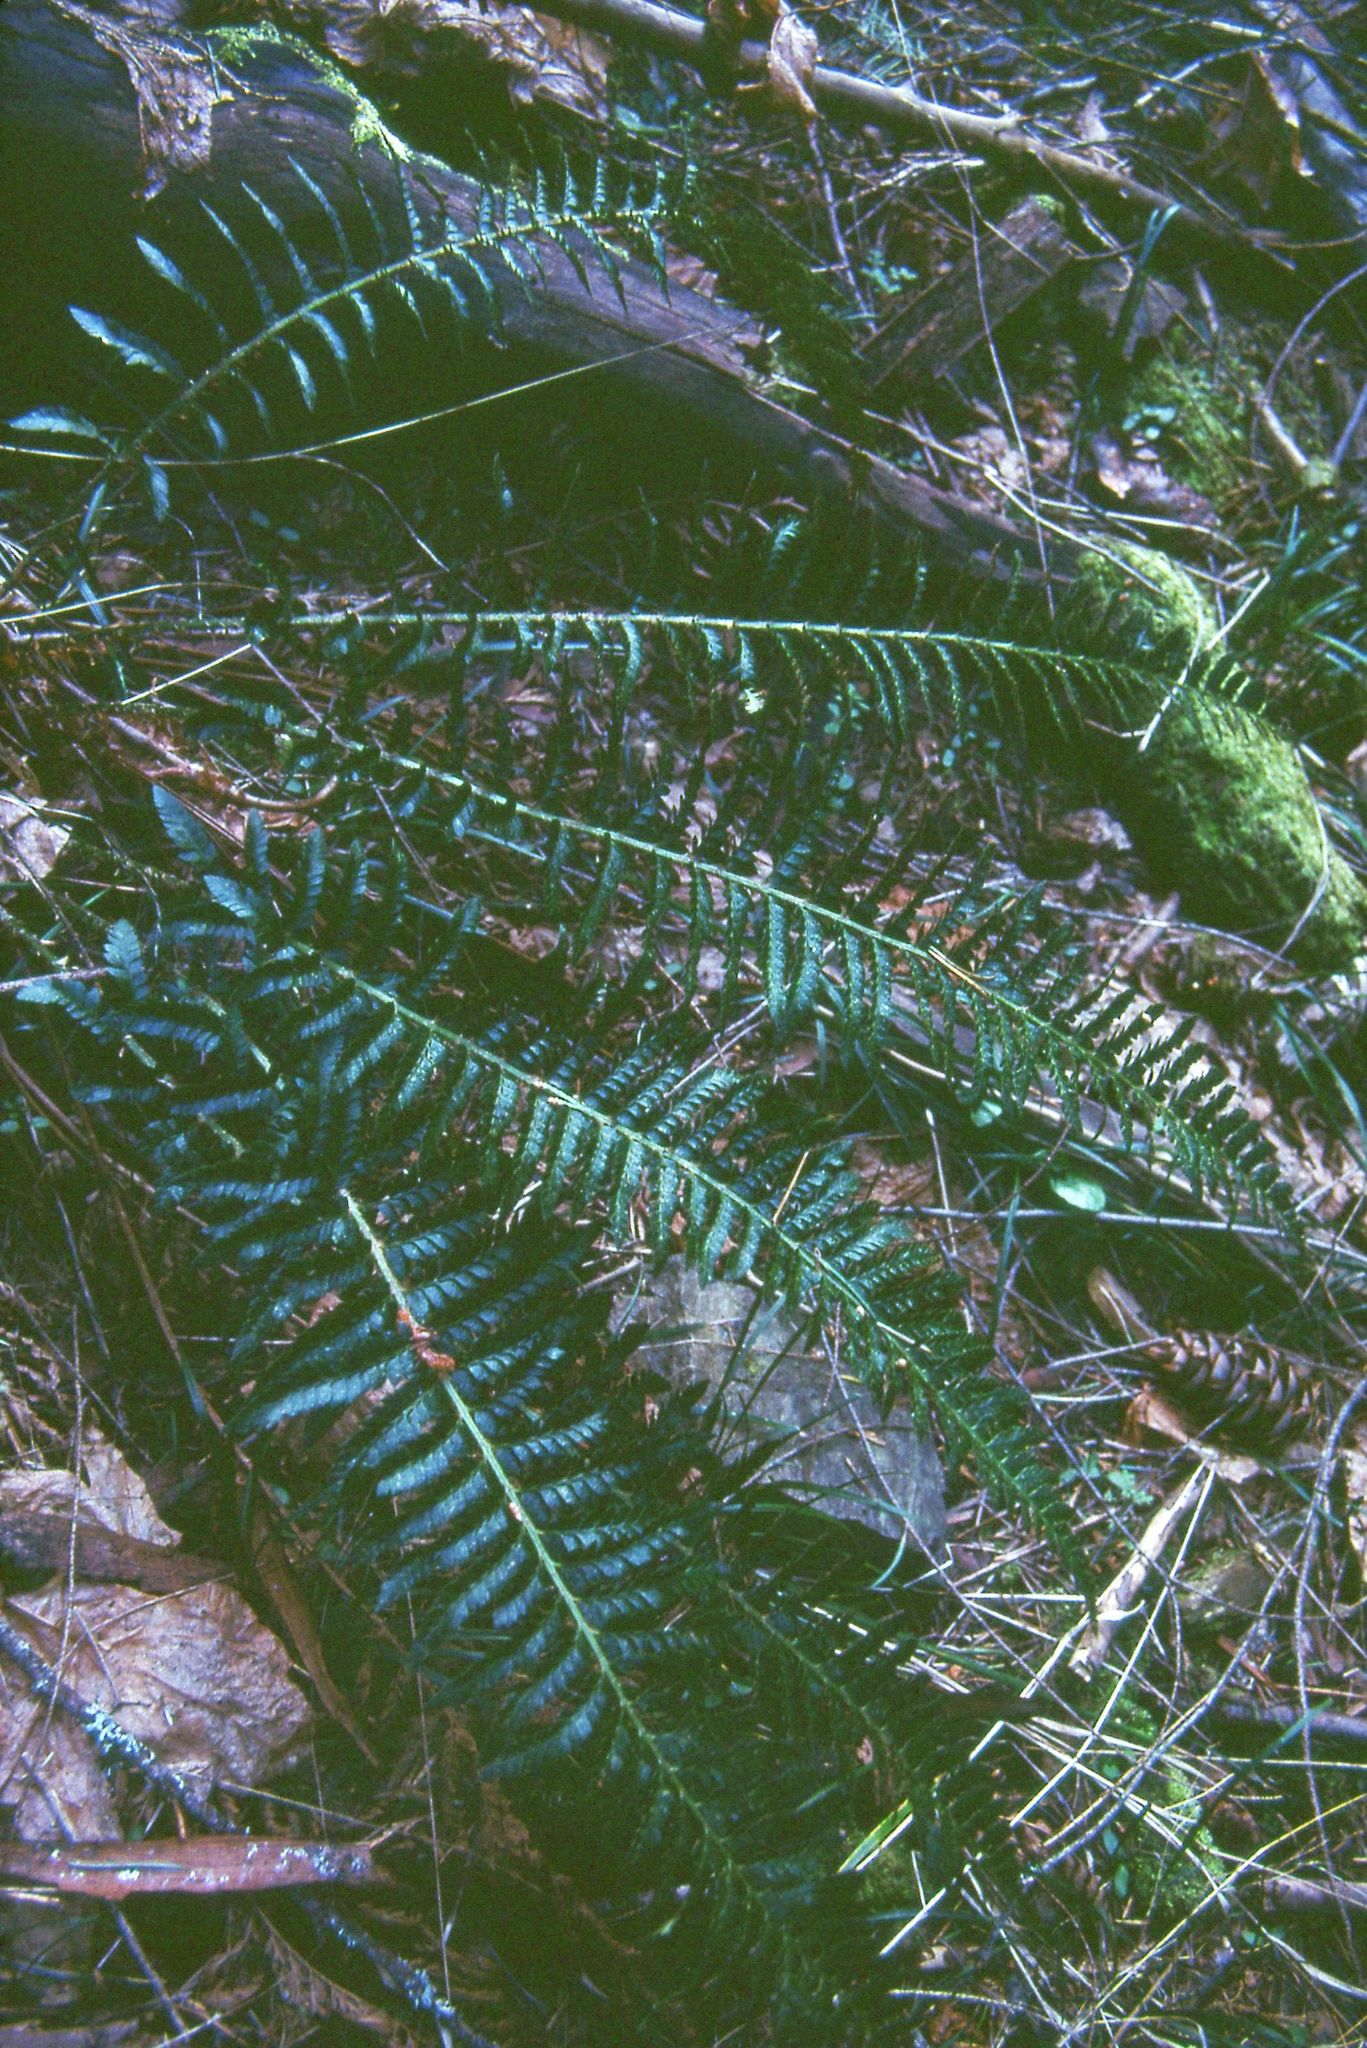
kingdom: Plantae
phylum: Tracheophyta
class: Polypodiopsida
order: Polypodiales
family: Dryopteridaceae
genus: Polystichum
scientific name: Polystichum californicum
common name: California sword fern
